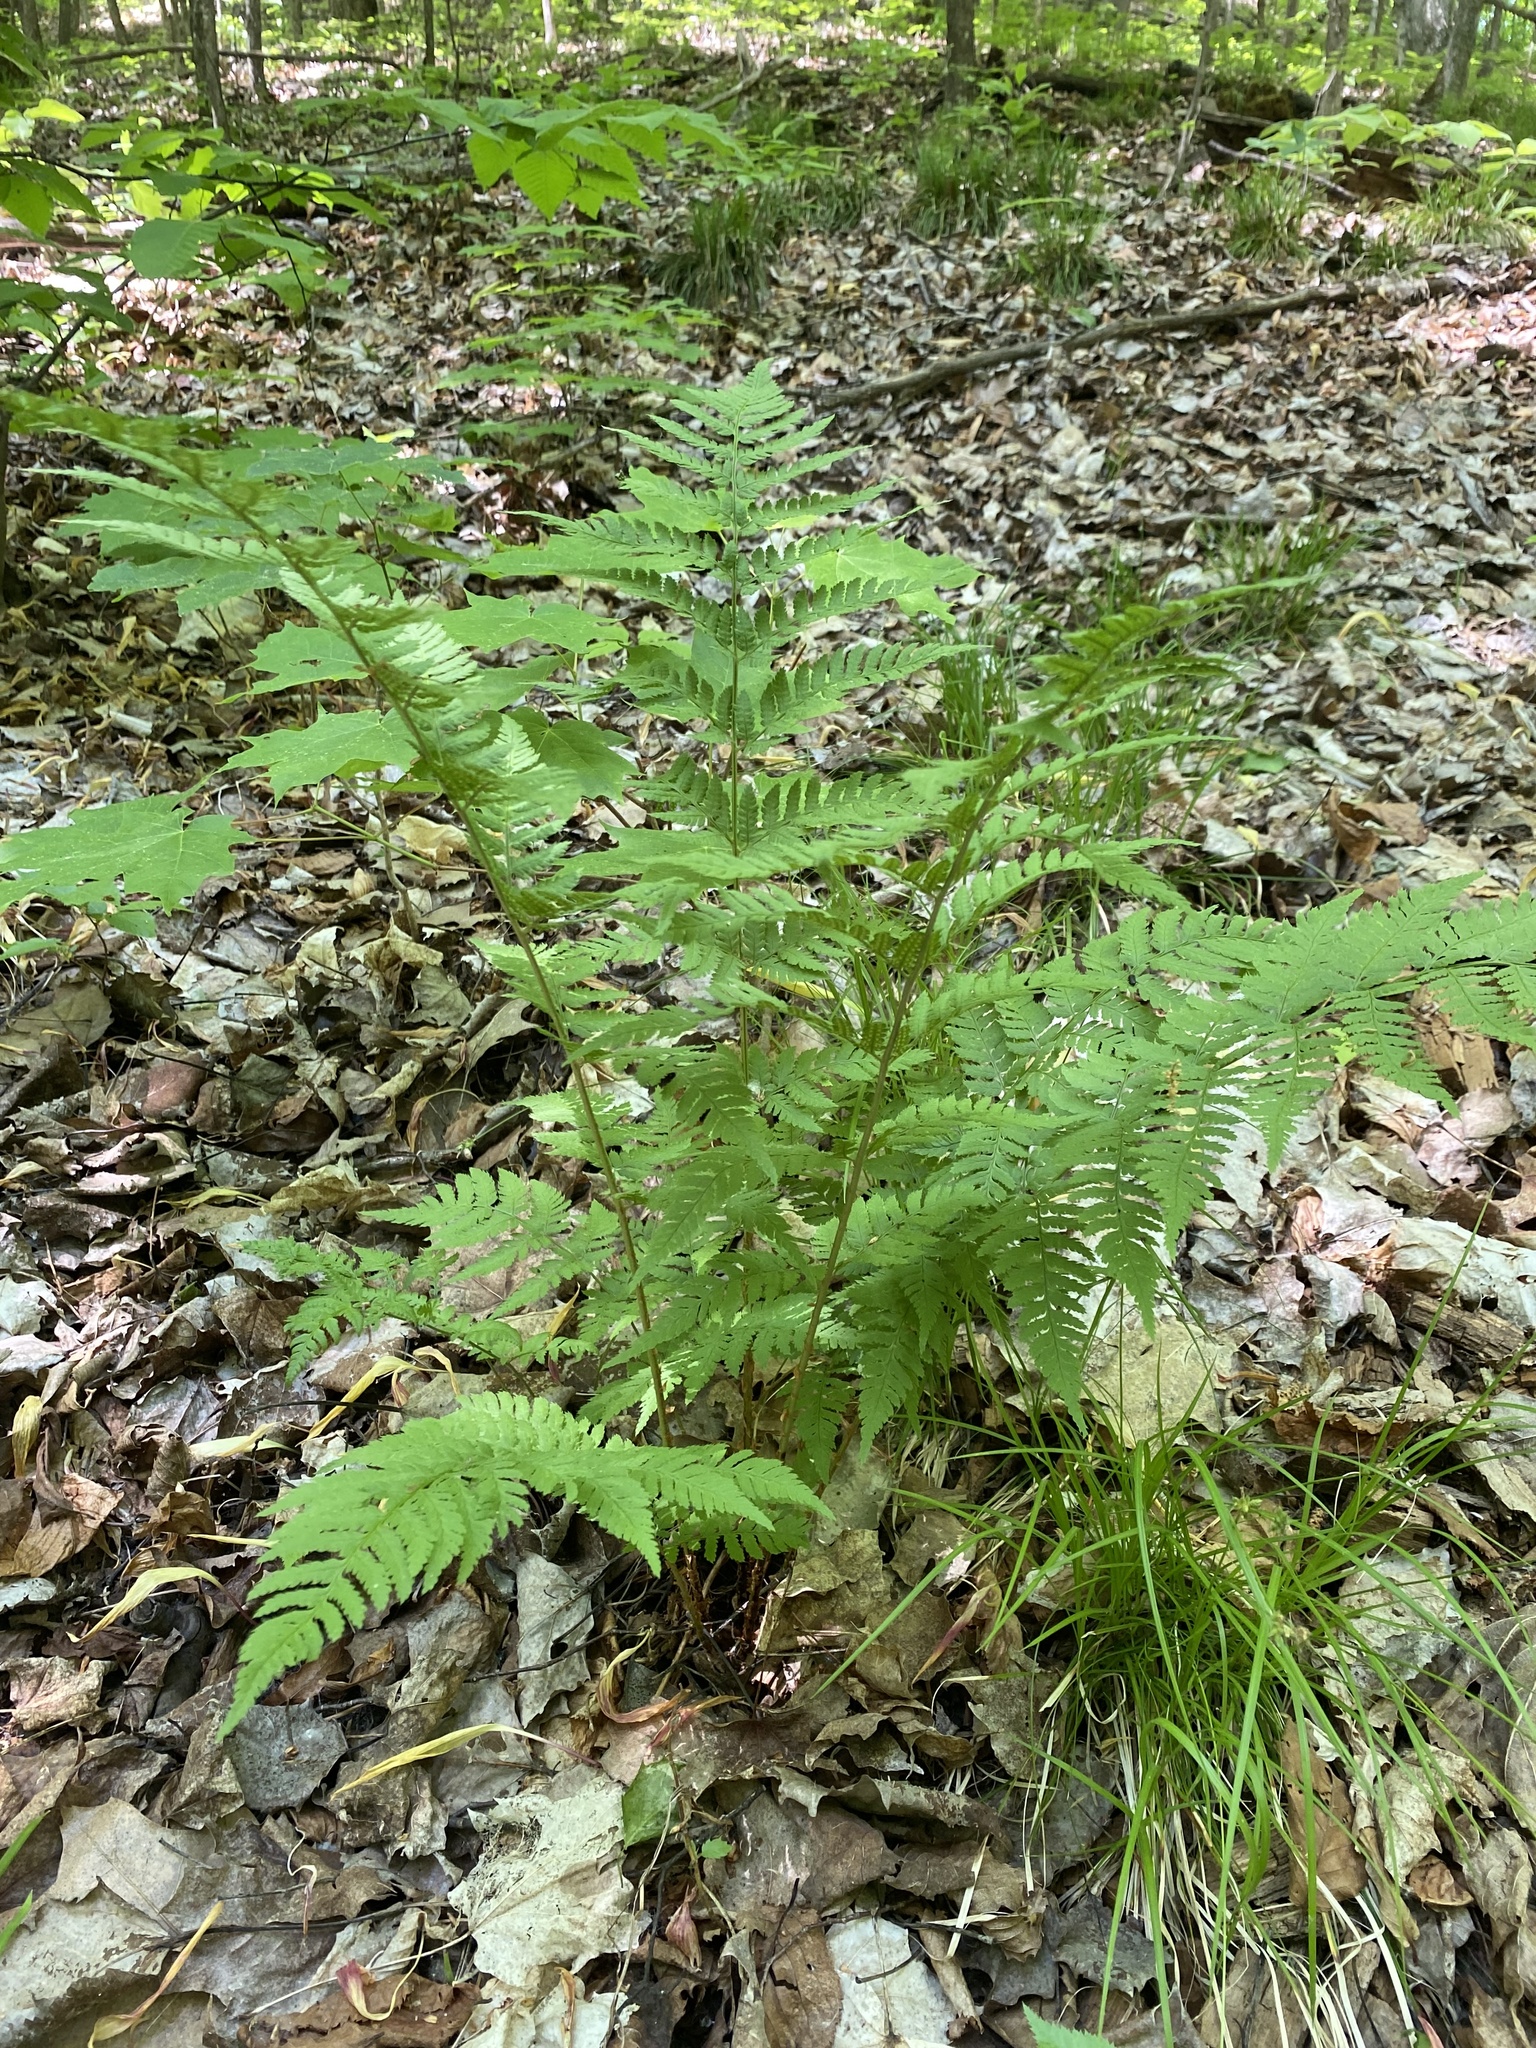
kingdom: Plantae
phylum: Tracheophyta
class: Polypodiopsida
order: Polypodiales
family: Dryopteridaceae
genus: Dryopteris
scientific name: Dryopteris carthusiana
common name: Narrow buckler-fern
